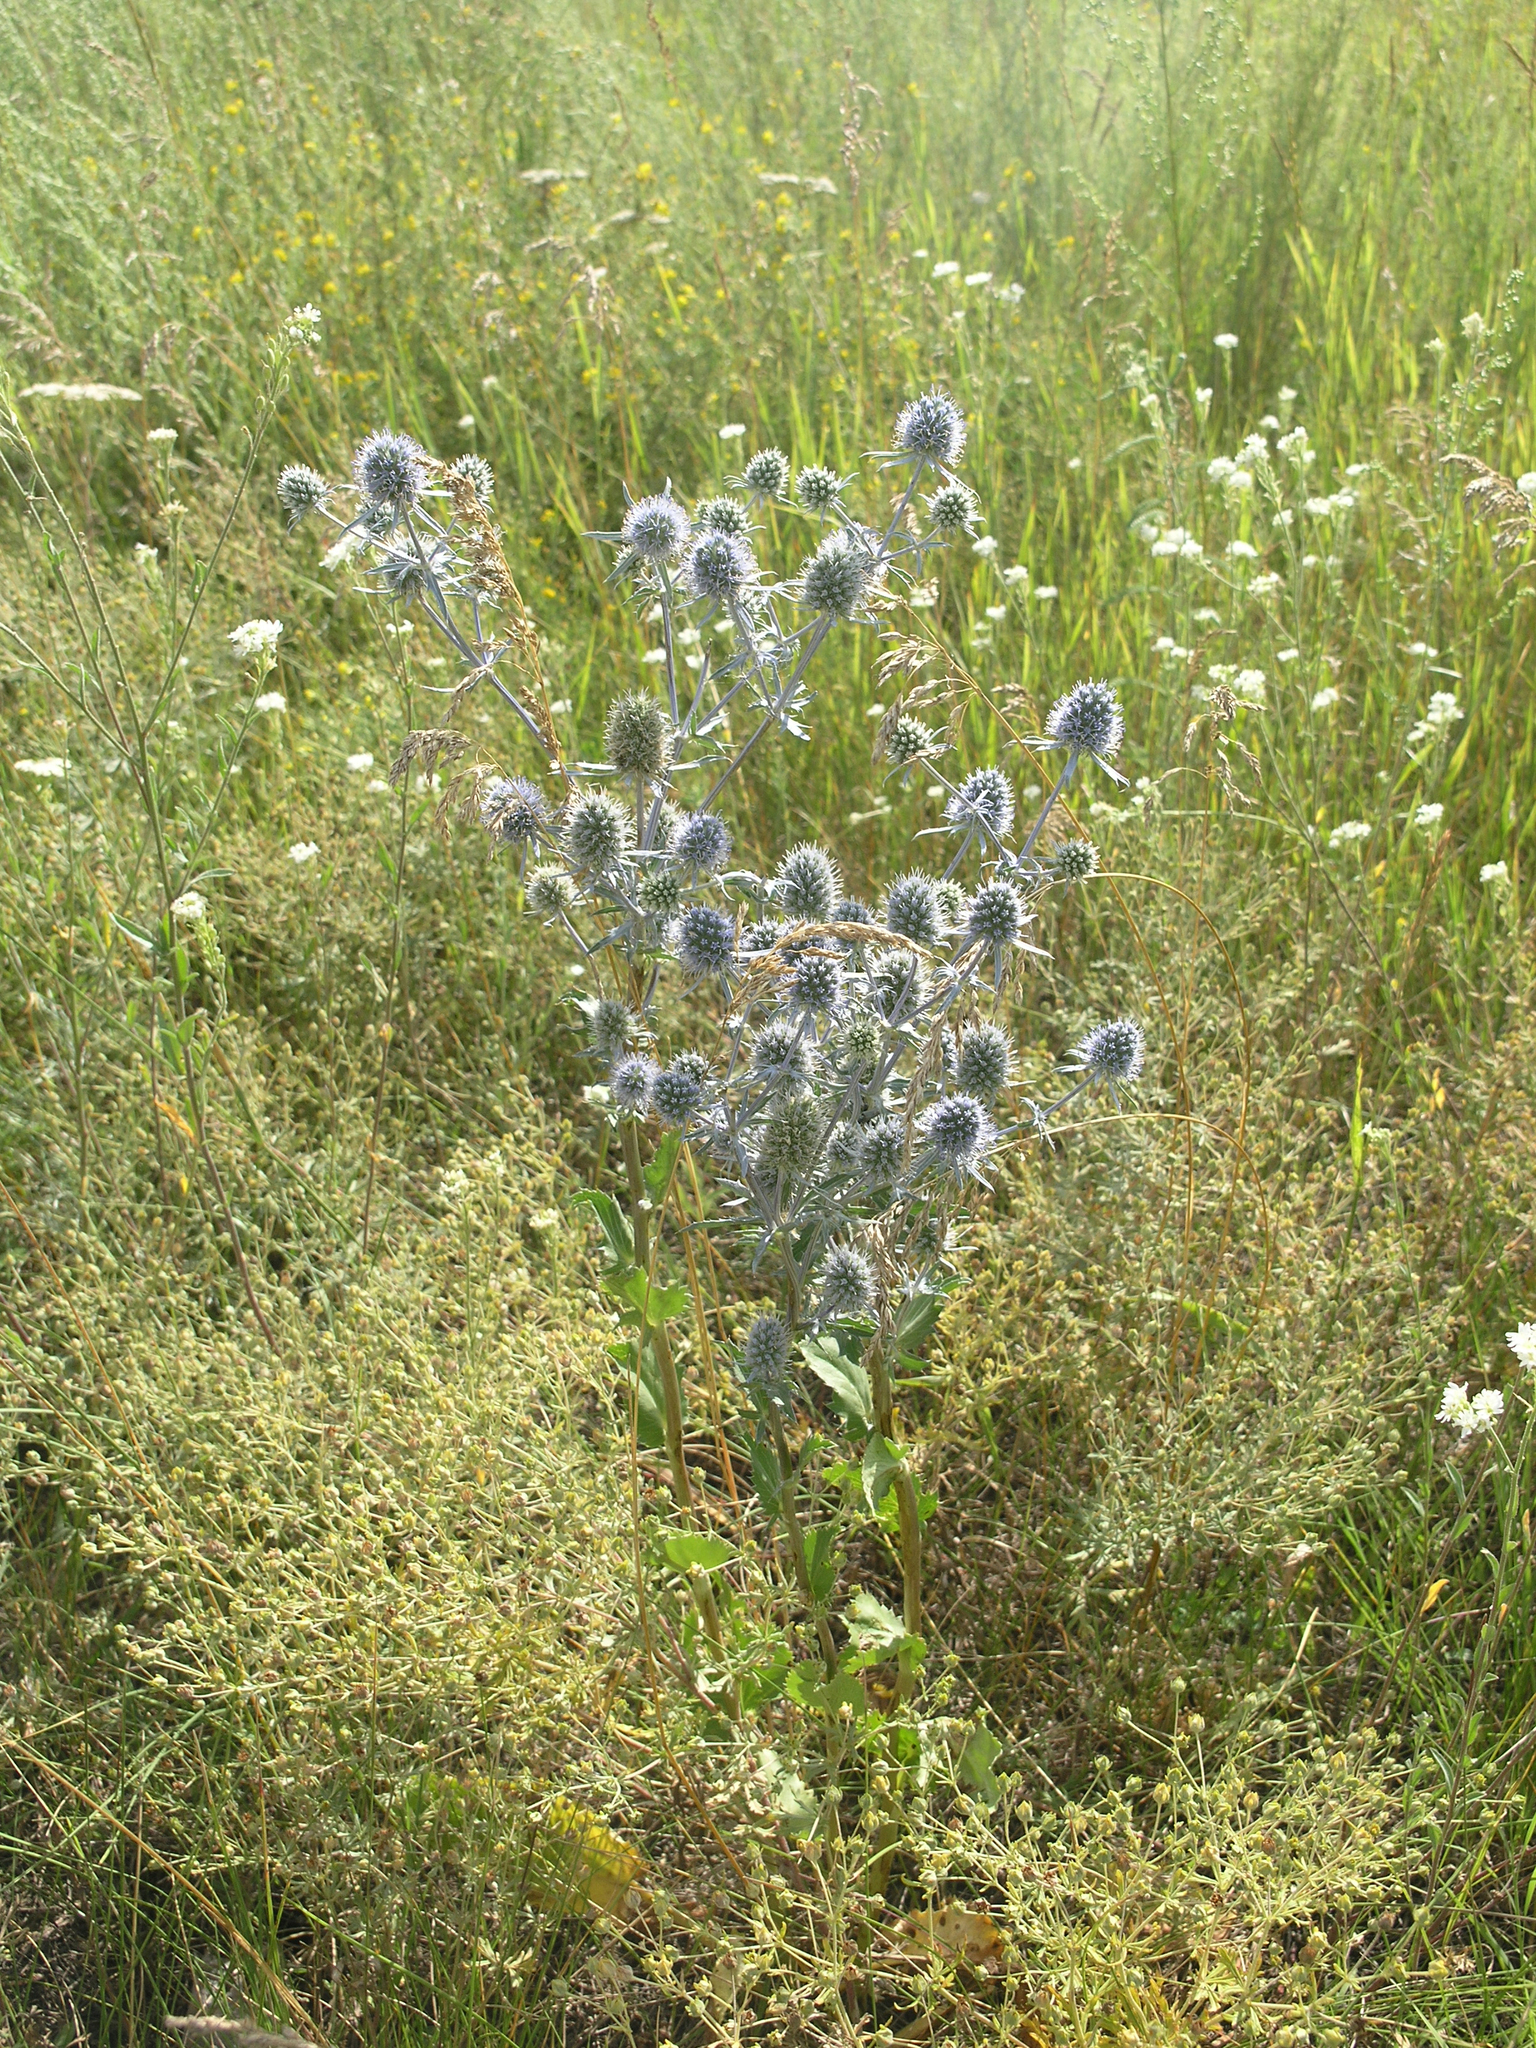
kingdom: Plantae
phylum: Tracheophyta
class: Magnoliopsida
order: Apiales
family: Apiaceae
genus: Eryngium
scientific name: Eryngium planum
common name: Blue eryngo
